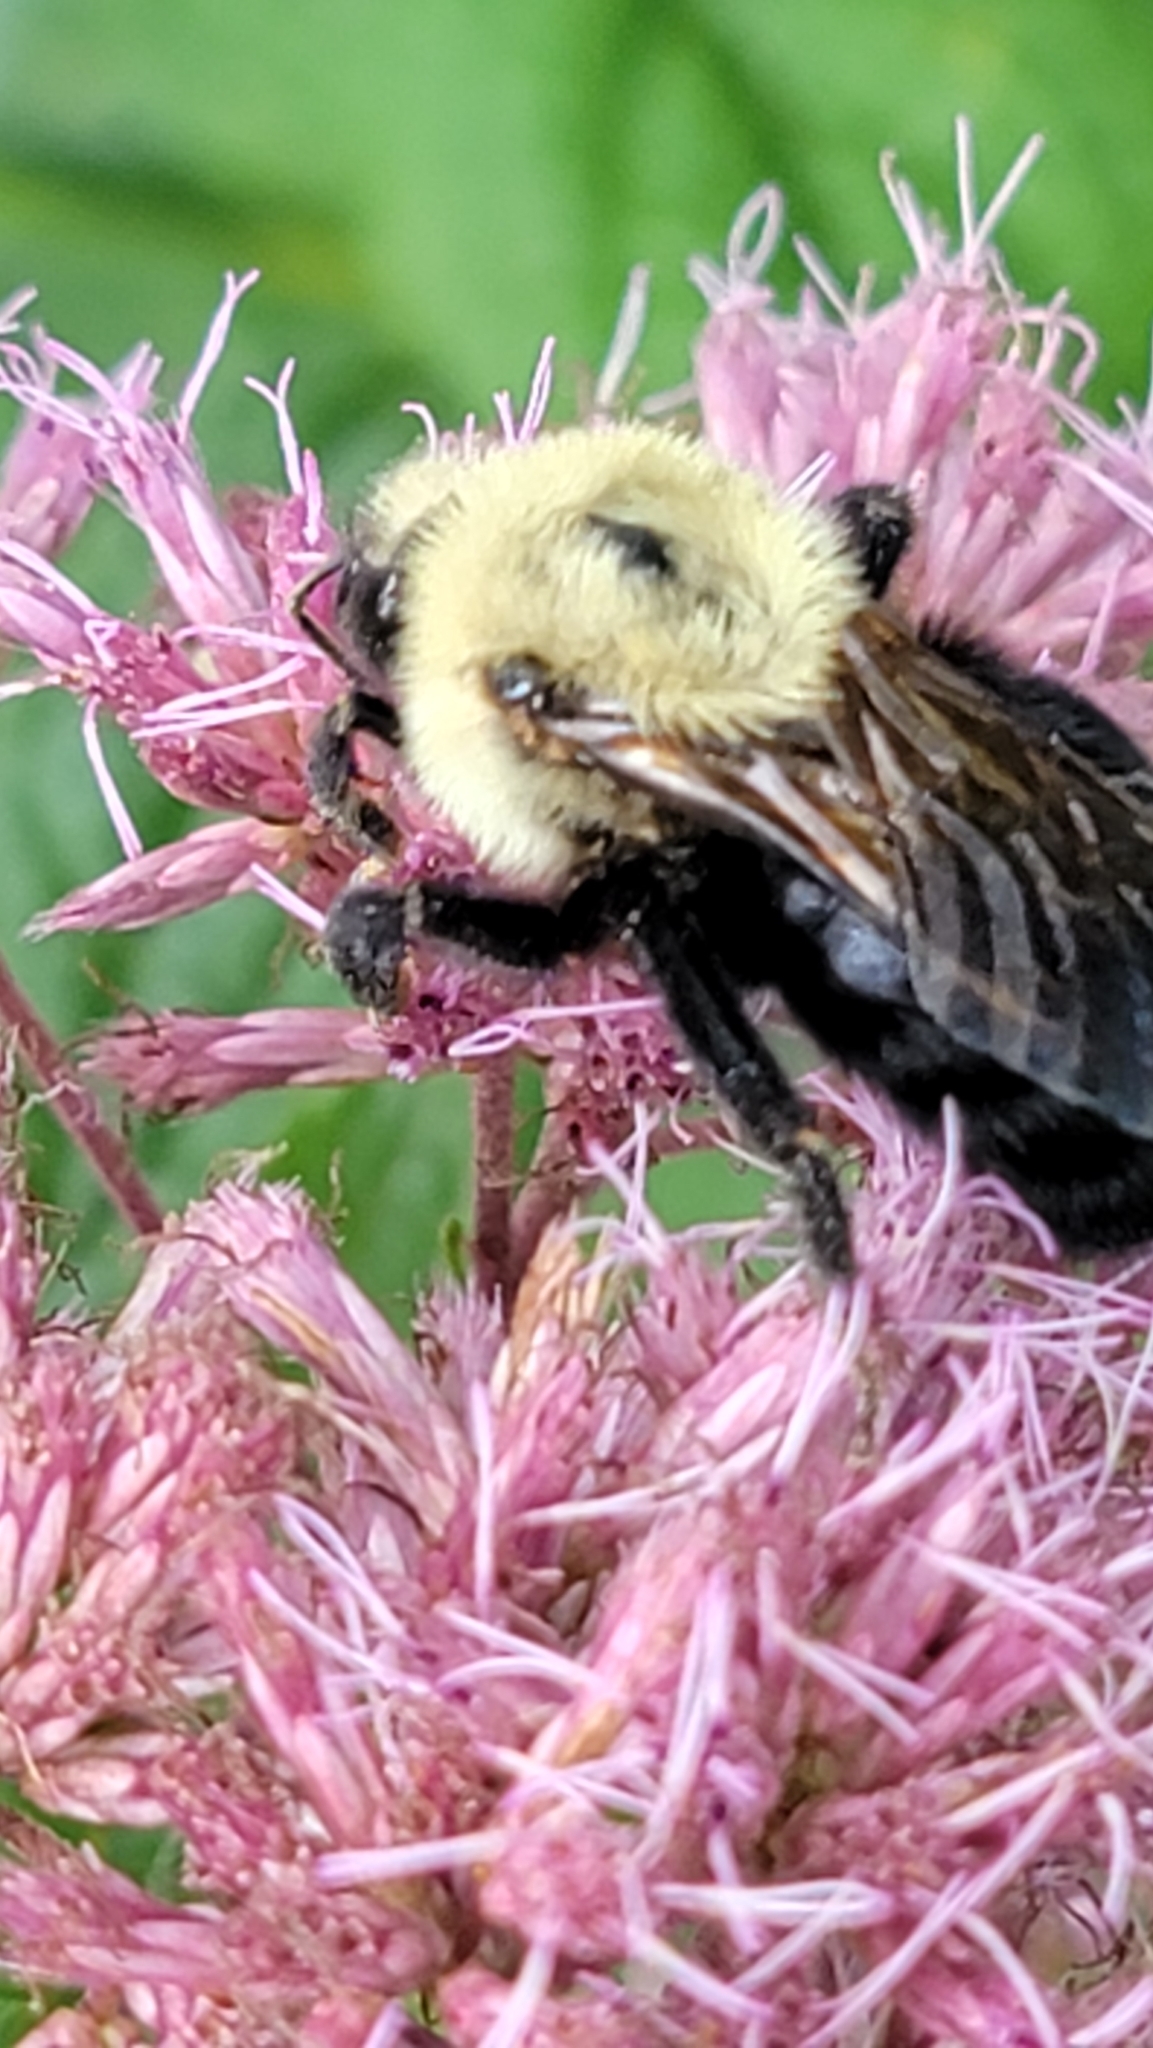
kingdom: Animalia
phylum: Arthropoda
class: Insecta
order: Hymenoptera
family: Apidae
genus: Bombus
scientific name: Bombus citrinus
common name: Lemon cuckoo bumble bee
